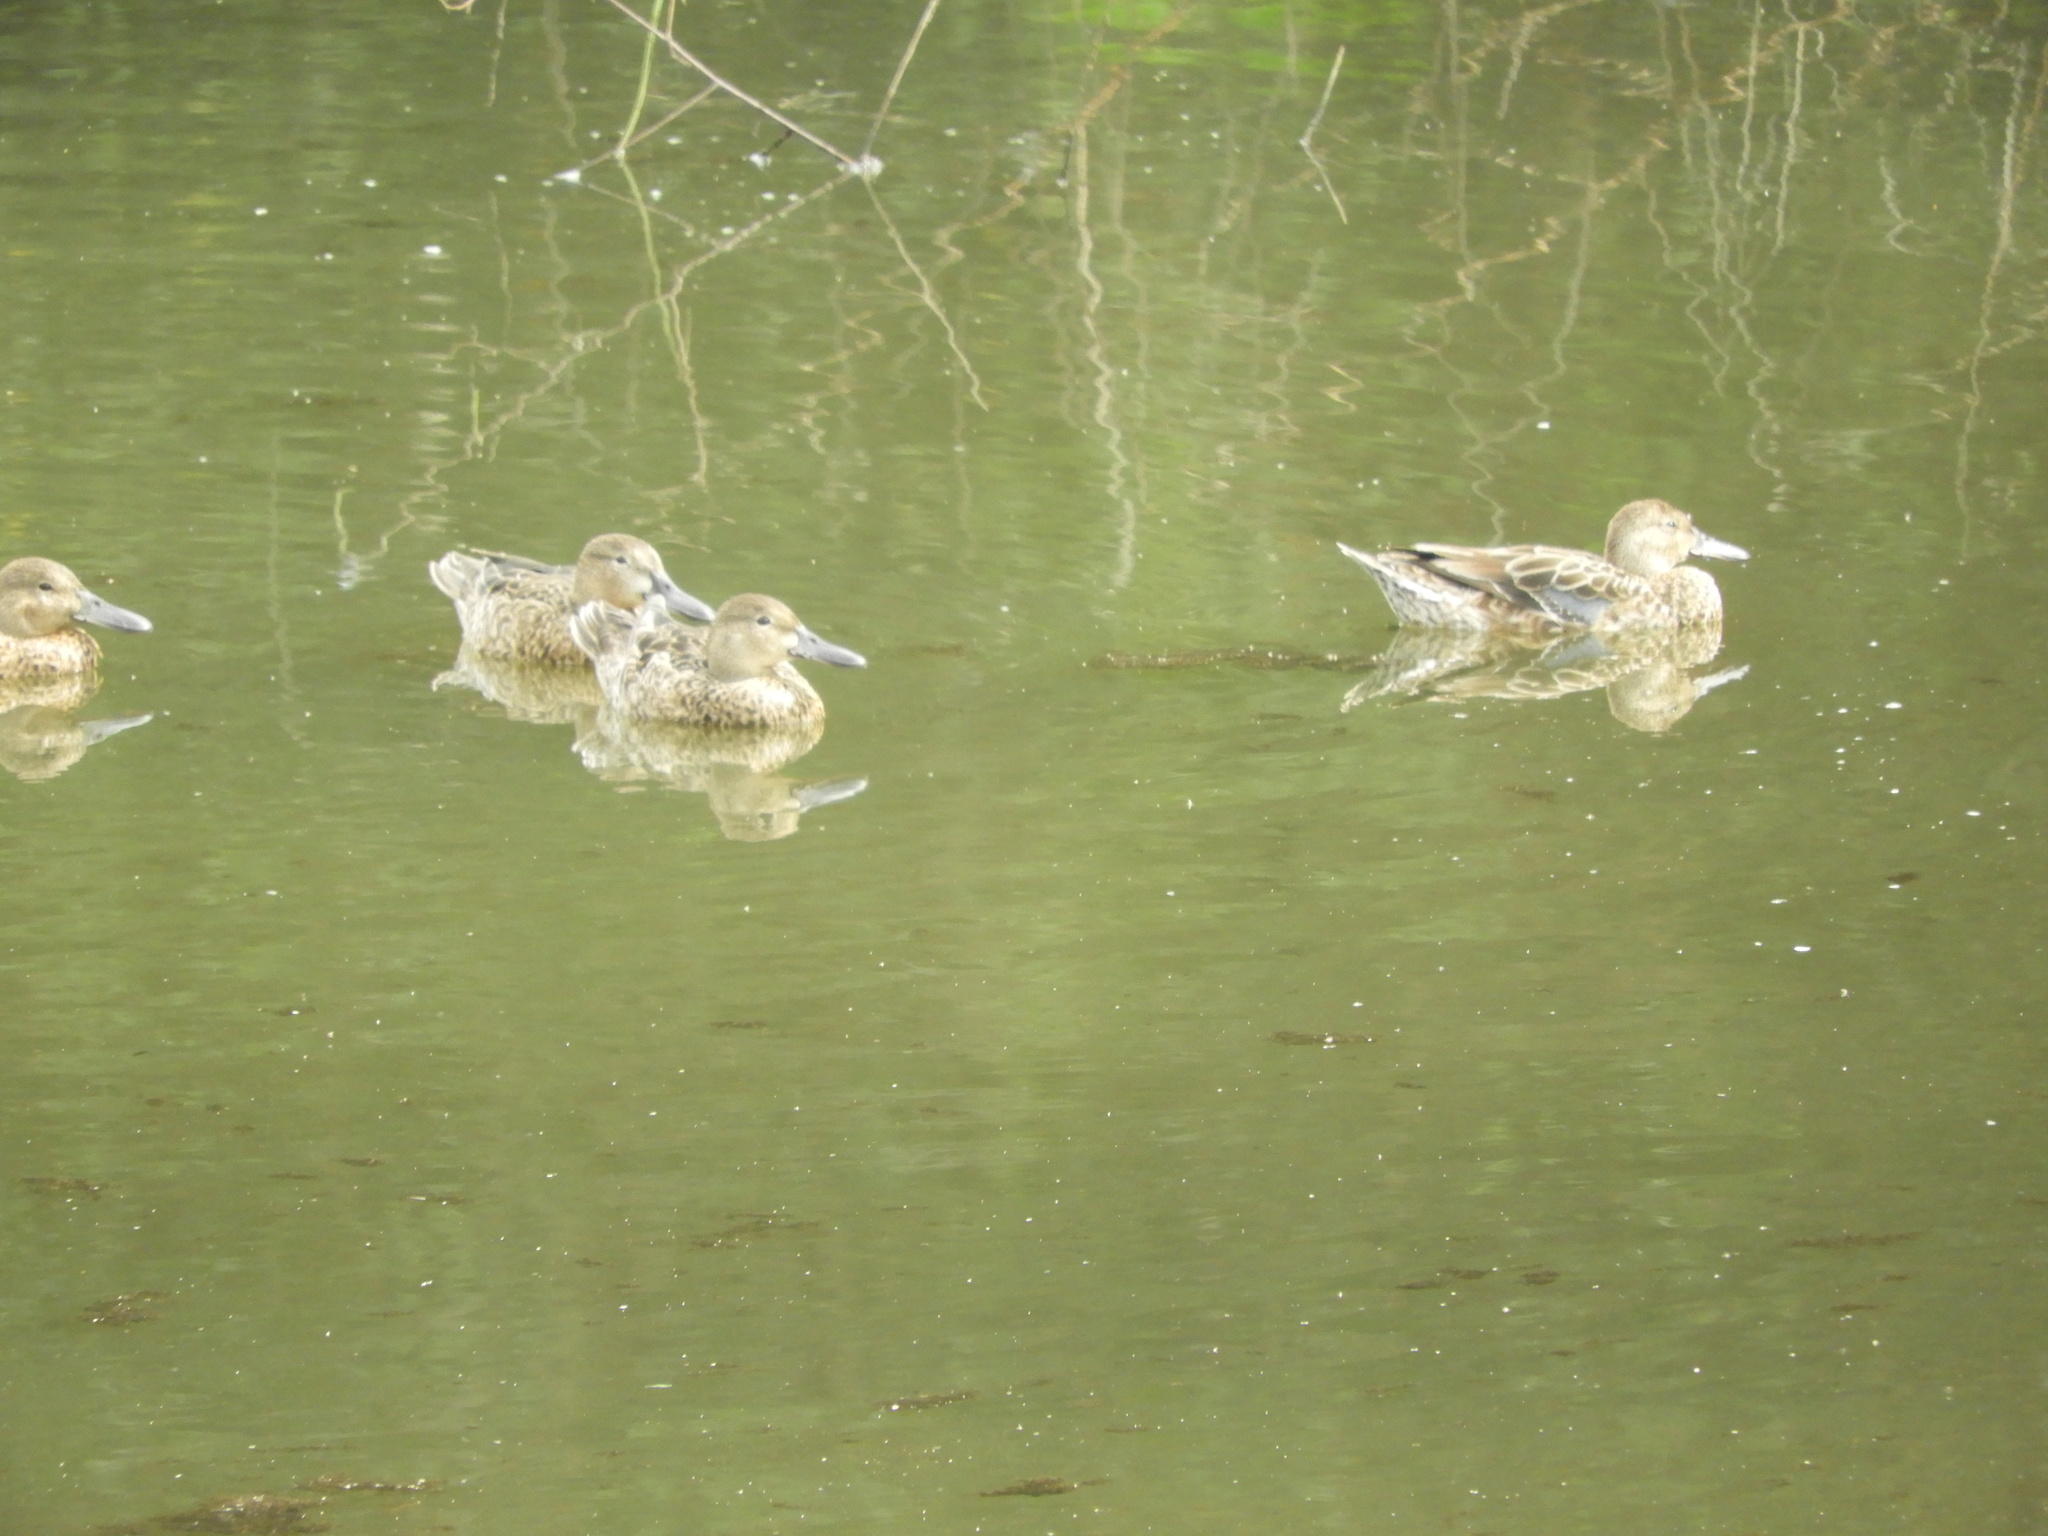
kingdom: Animalia
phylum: Chordata
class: Aves
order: Anseriformes
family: Anatidae
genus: Spatula
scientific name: Spatula discors
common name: Blue-winged teal
